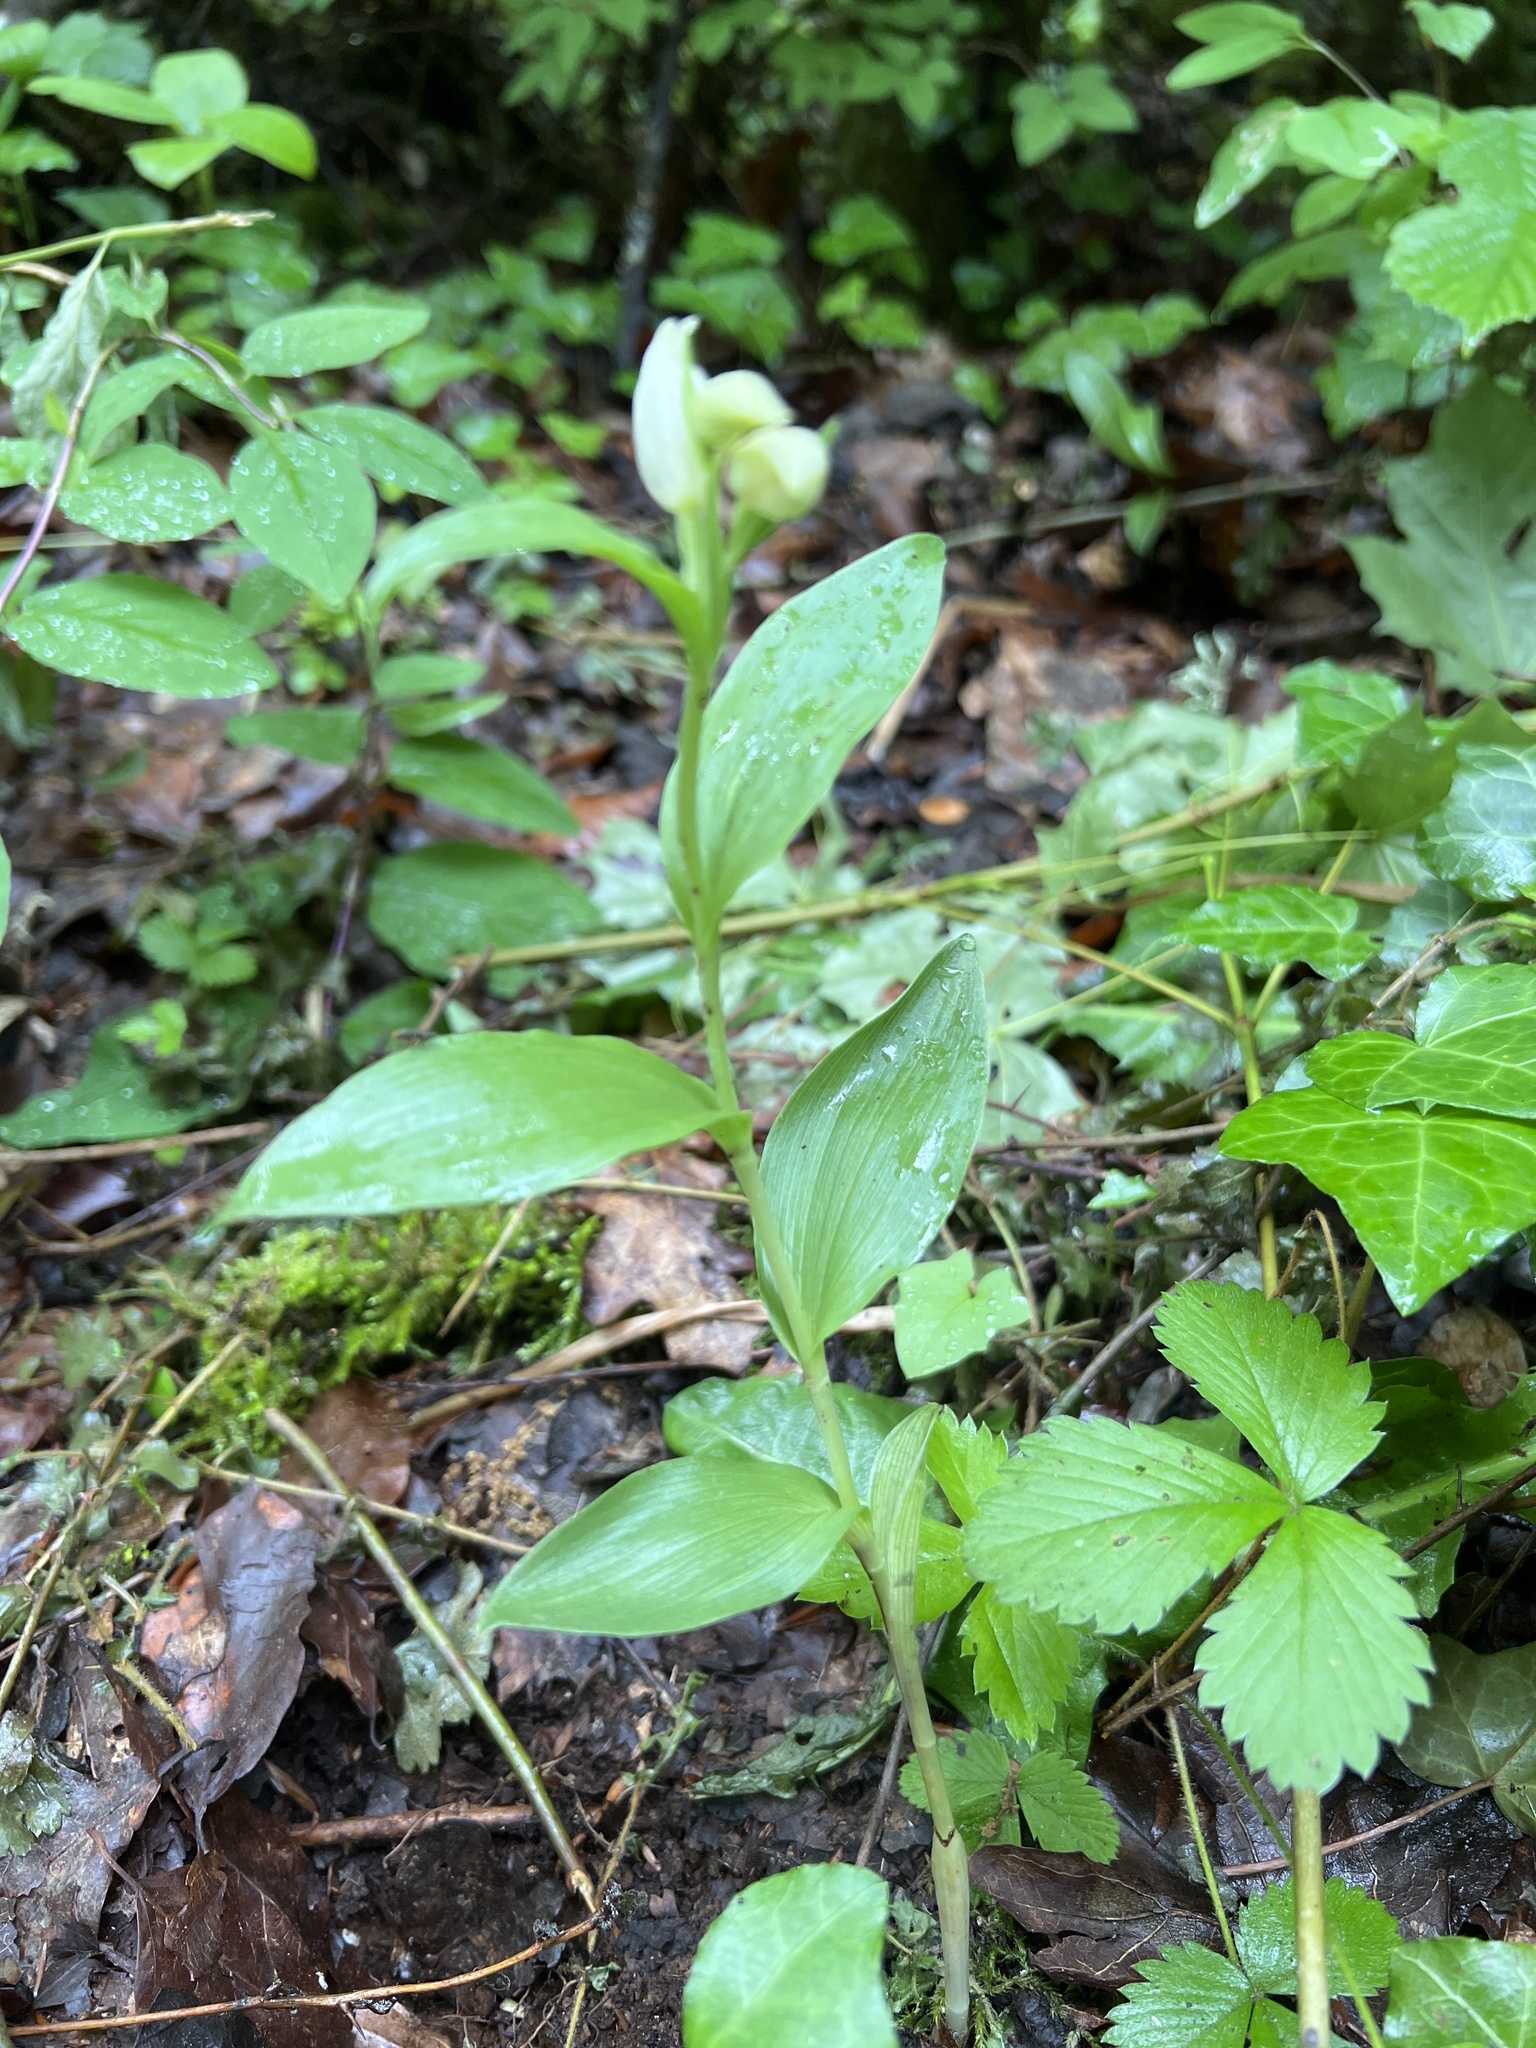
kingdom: Plantae
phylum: Tracheophyta
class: Liliopsida
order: Asparagales
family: Orchidaceae
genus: Cephalanthera
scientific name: Cephalanthera damasonium
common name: White helleborine
